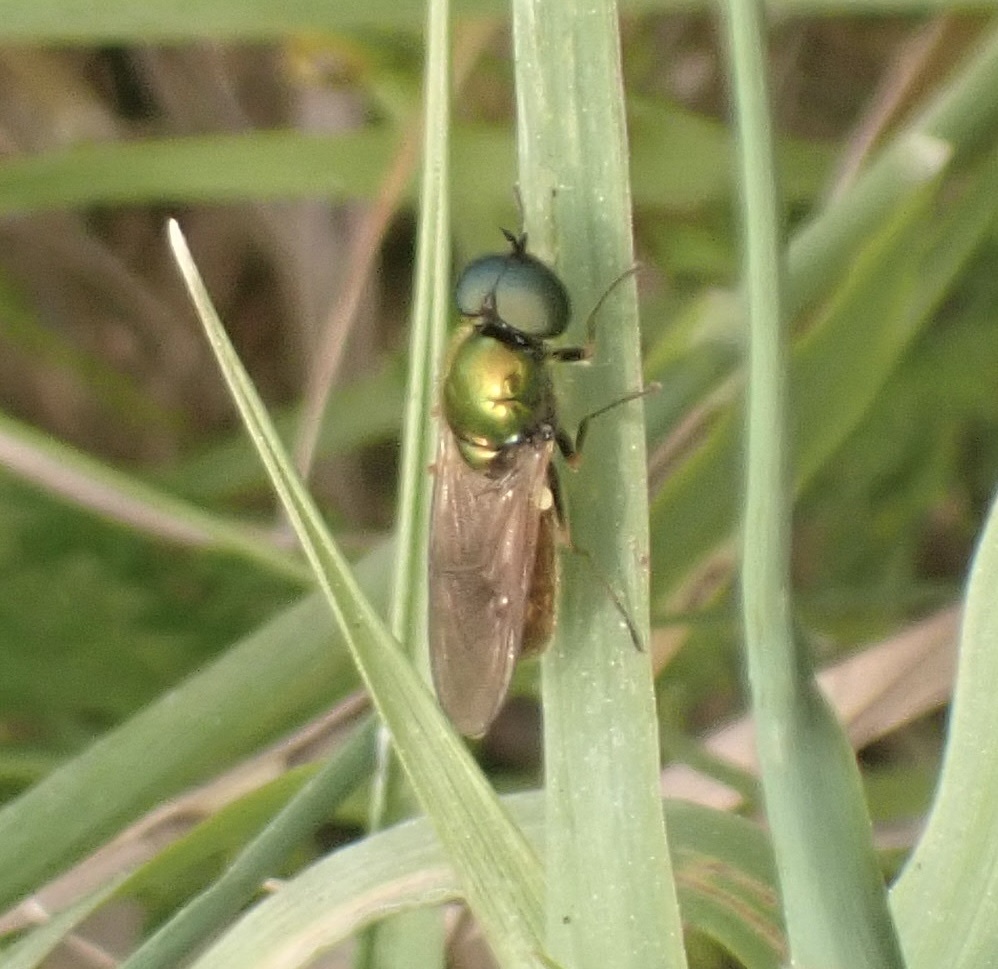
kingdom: Animalia
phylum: Arthropoda
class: Insecta
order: Diptera
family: Stratiomyidae
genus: Chloromyia
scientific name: Chloromyia formosa
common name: Soldier fly
